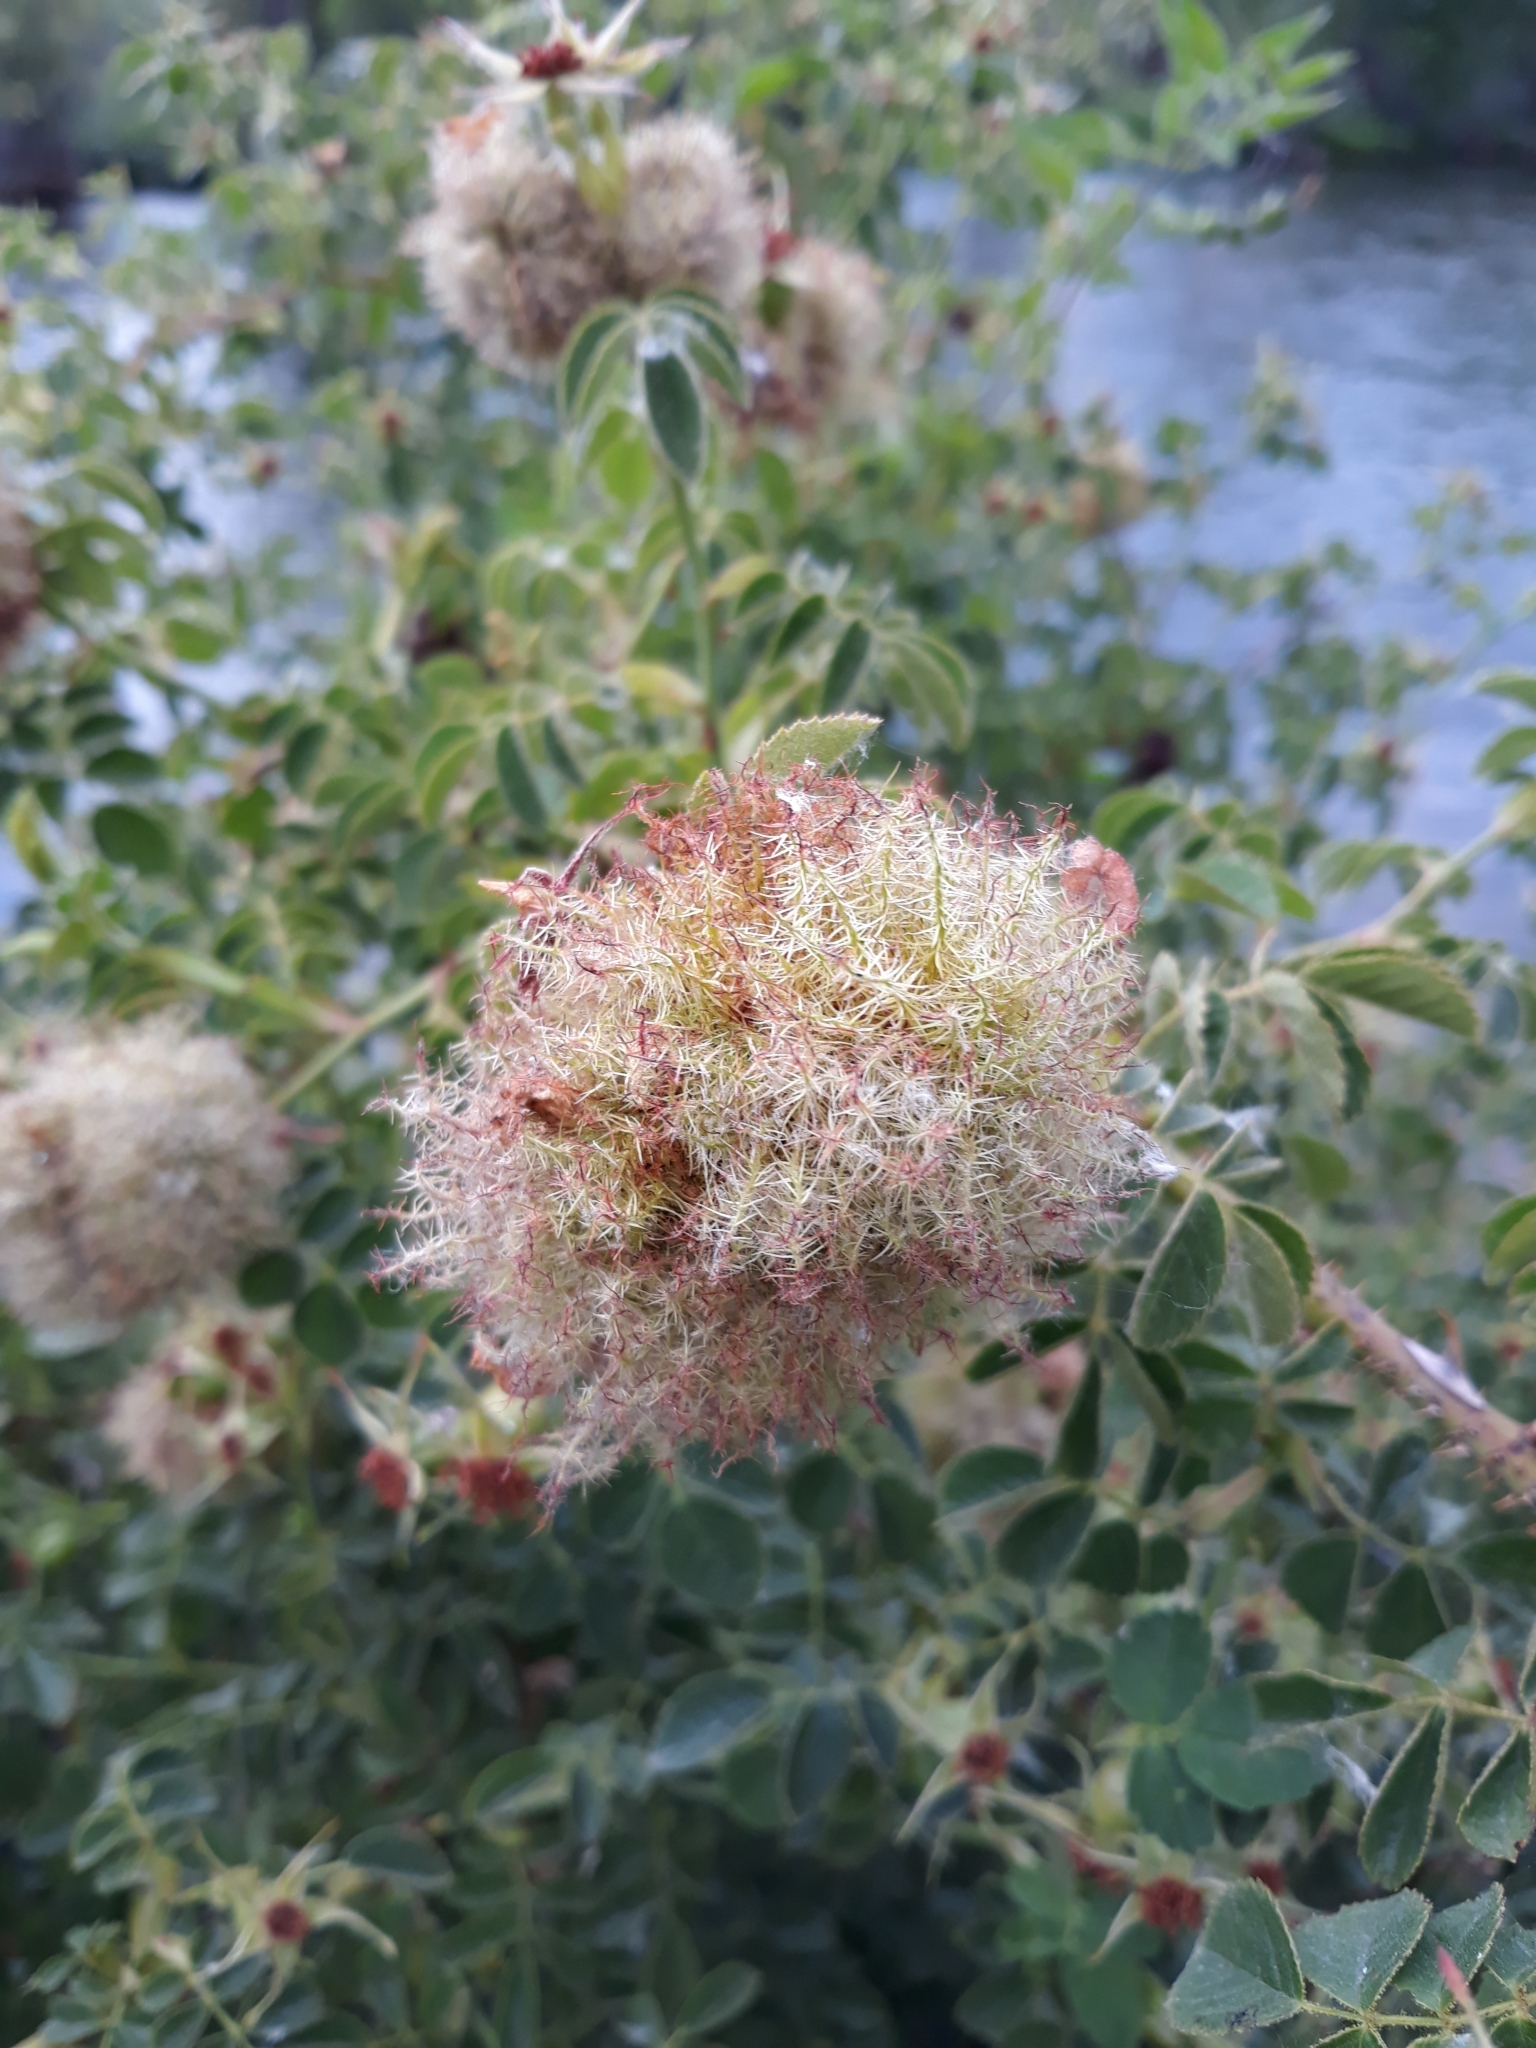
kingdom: Animalia
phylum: Arthropoda
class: Insecta
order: Hymenoptera
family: Cynipidae
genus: Diplolepis
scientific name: Diplolepis rosae
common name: Bedeguar gall
